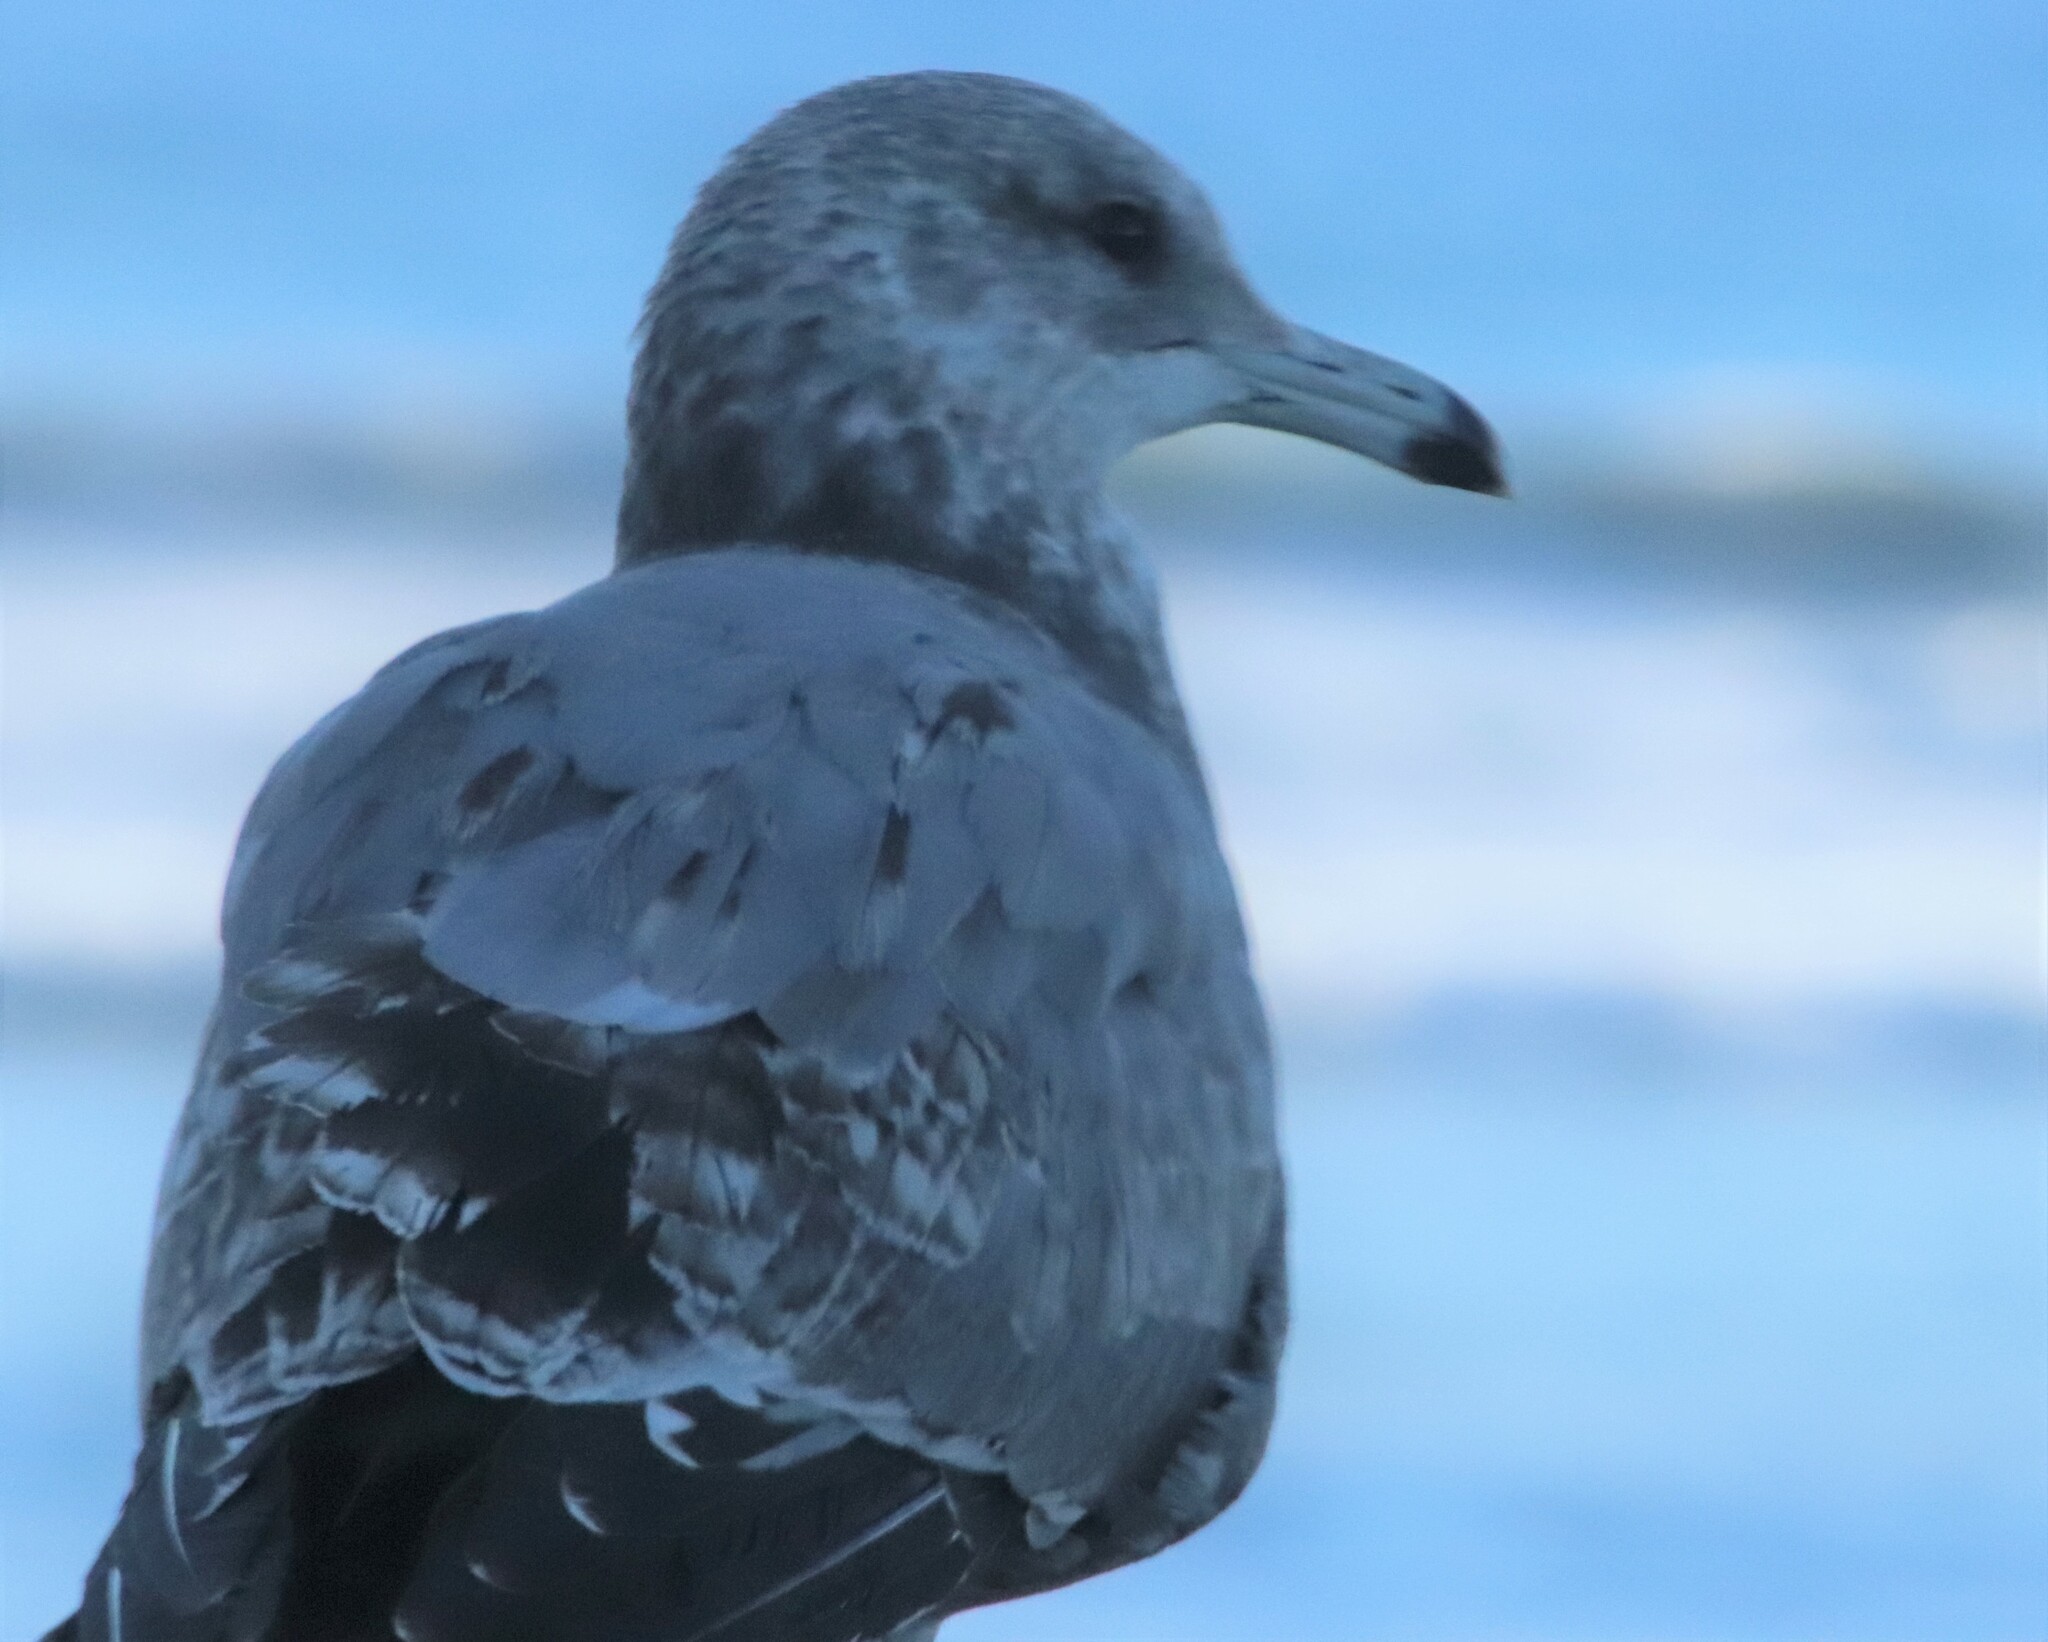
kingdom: Animalia
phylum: Chordata
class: Aves
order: Charadriiformes
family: Laridae
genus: Larus
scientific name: Larus californicus
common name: California gull
